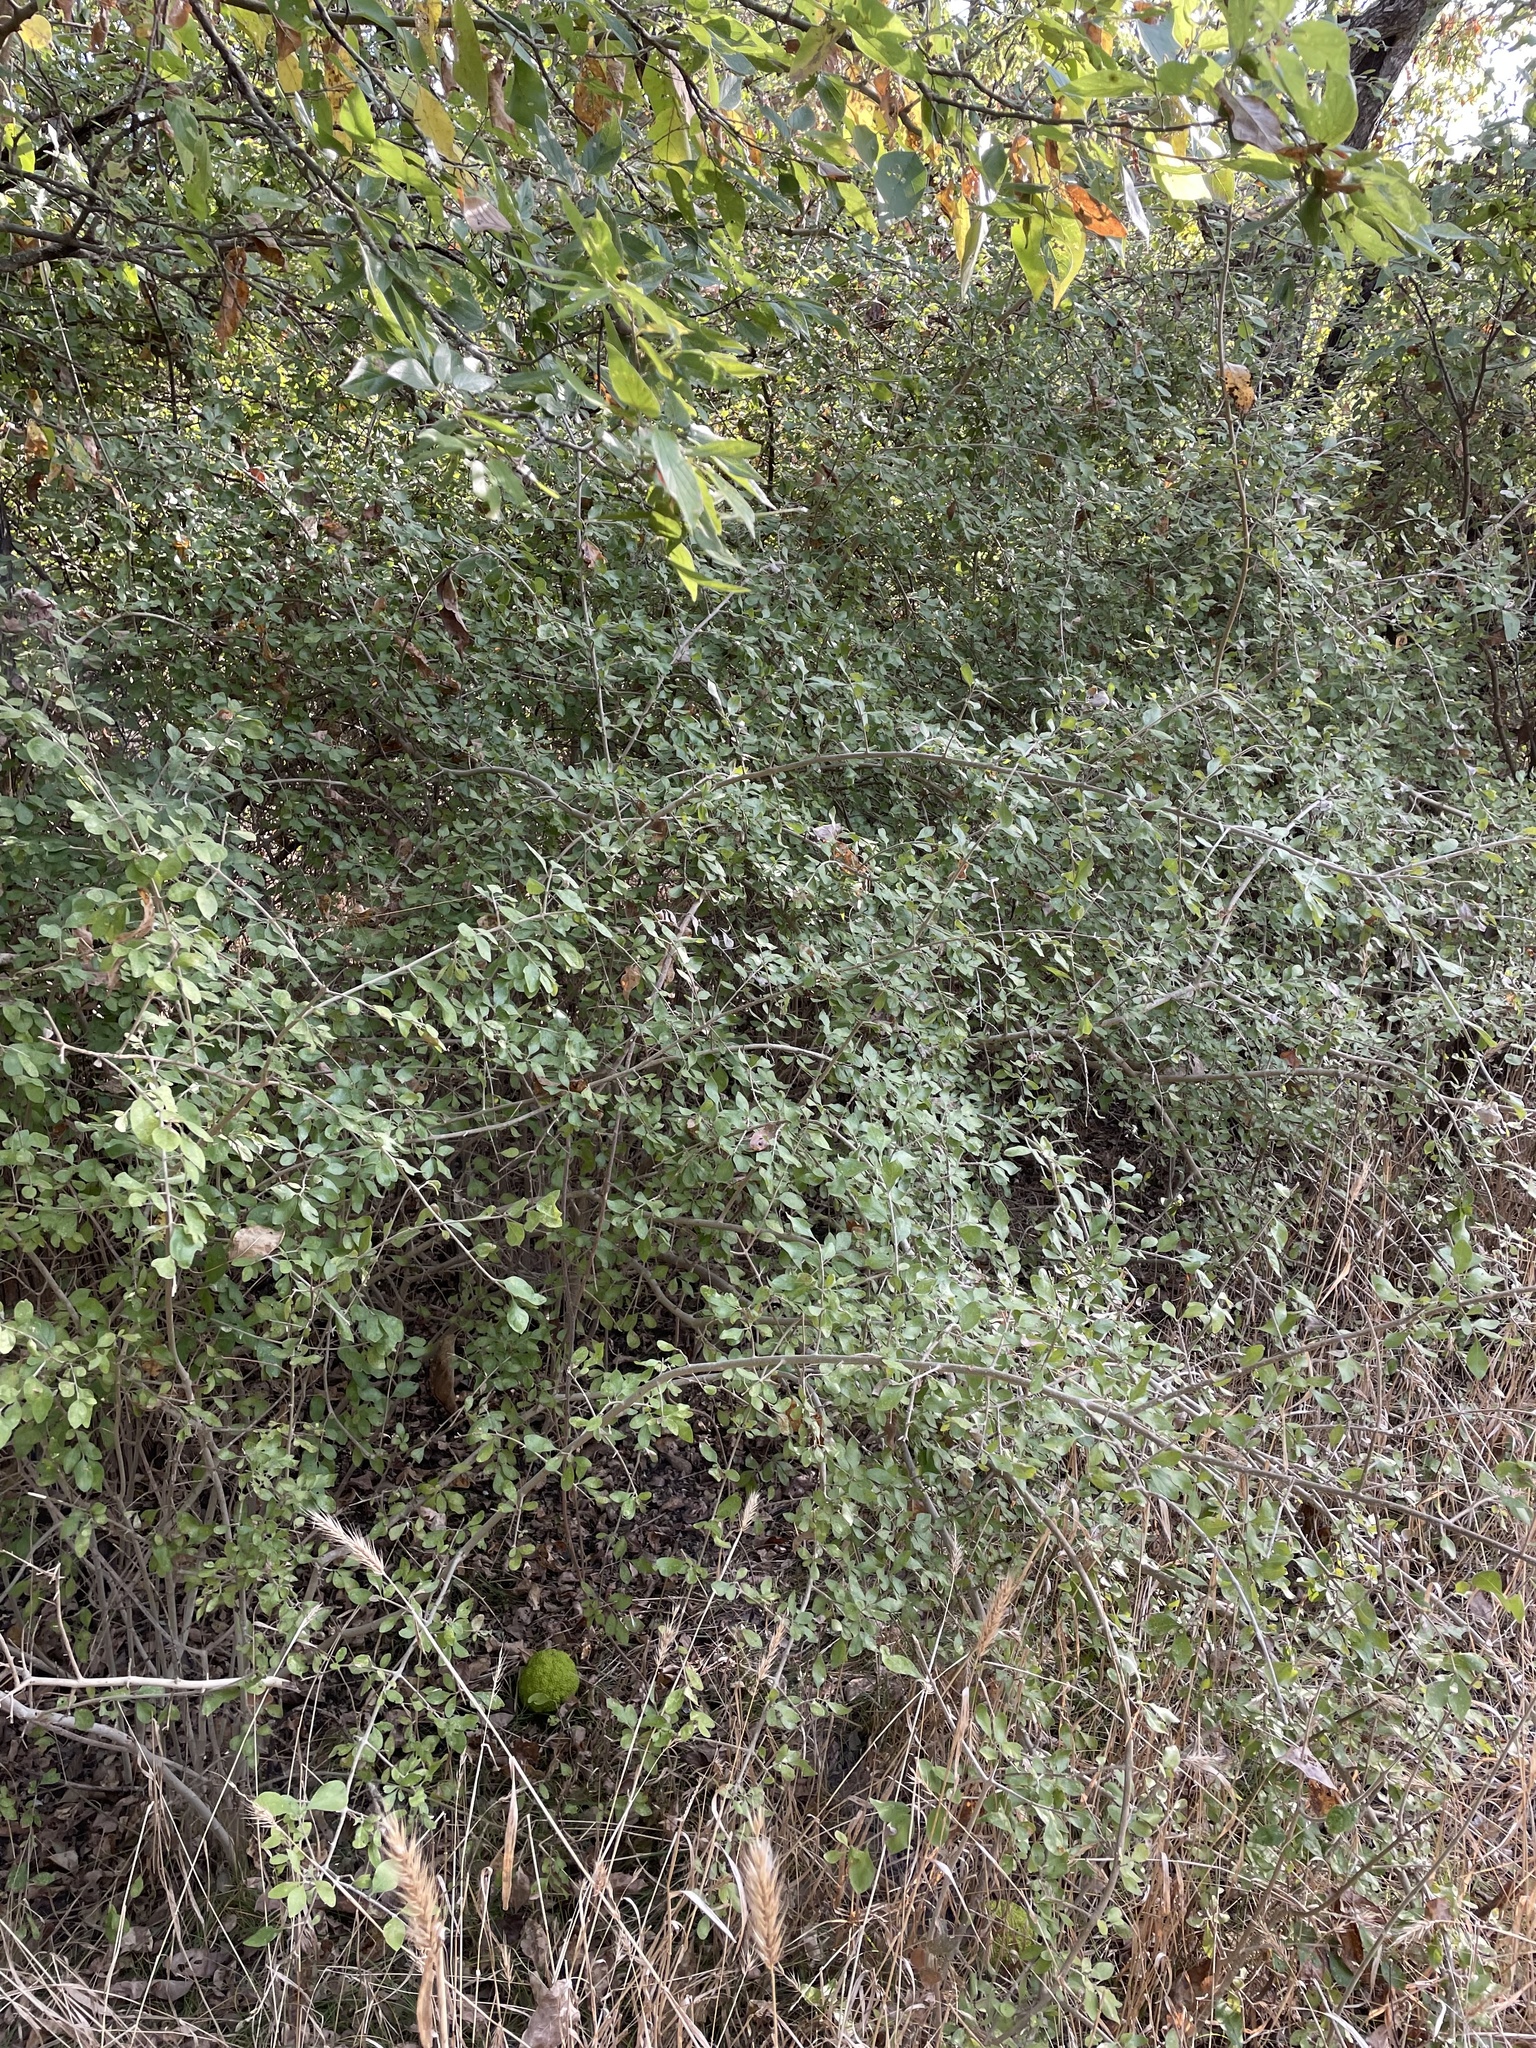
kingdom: Plantae
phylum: Tracheophyta
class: Magnoliopsida
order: Lamiales
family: Oleaceae
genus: Forestiera
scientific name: Forestiera pubescens
